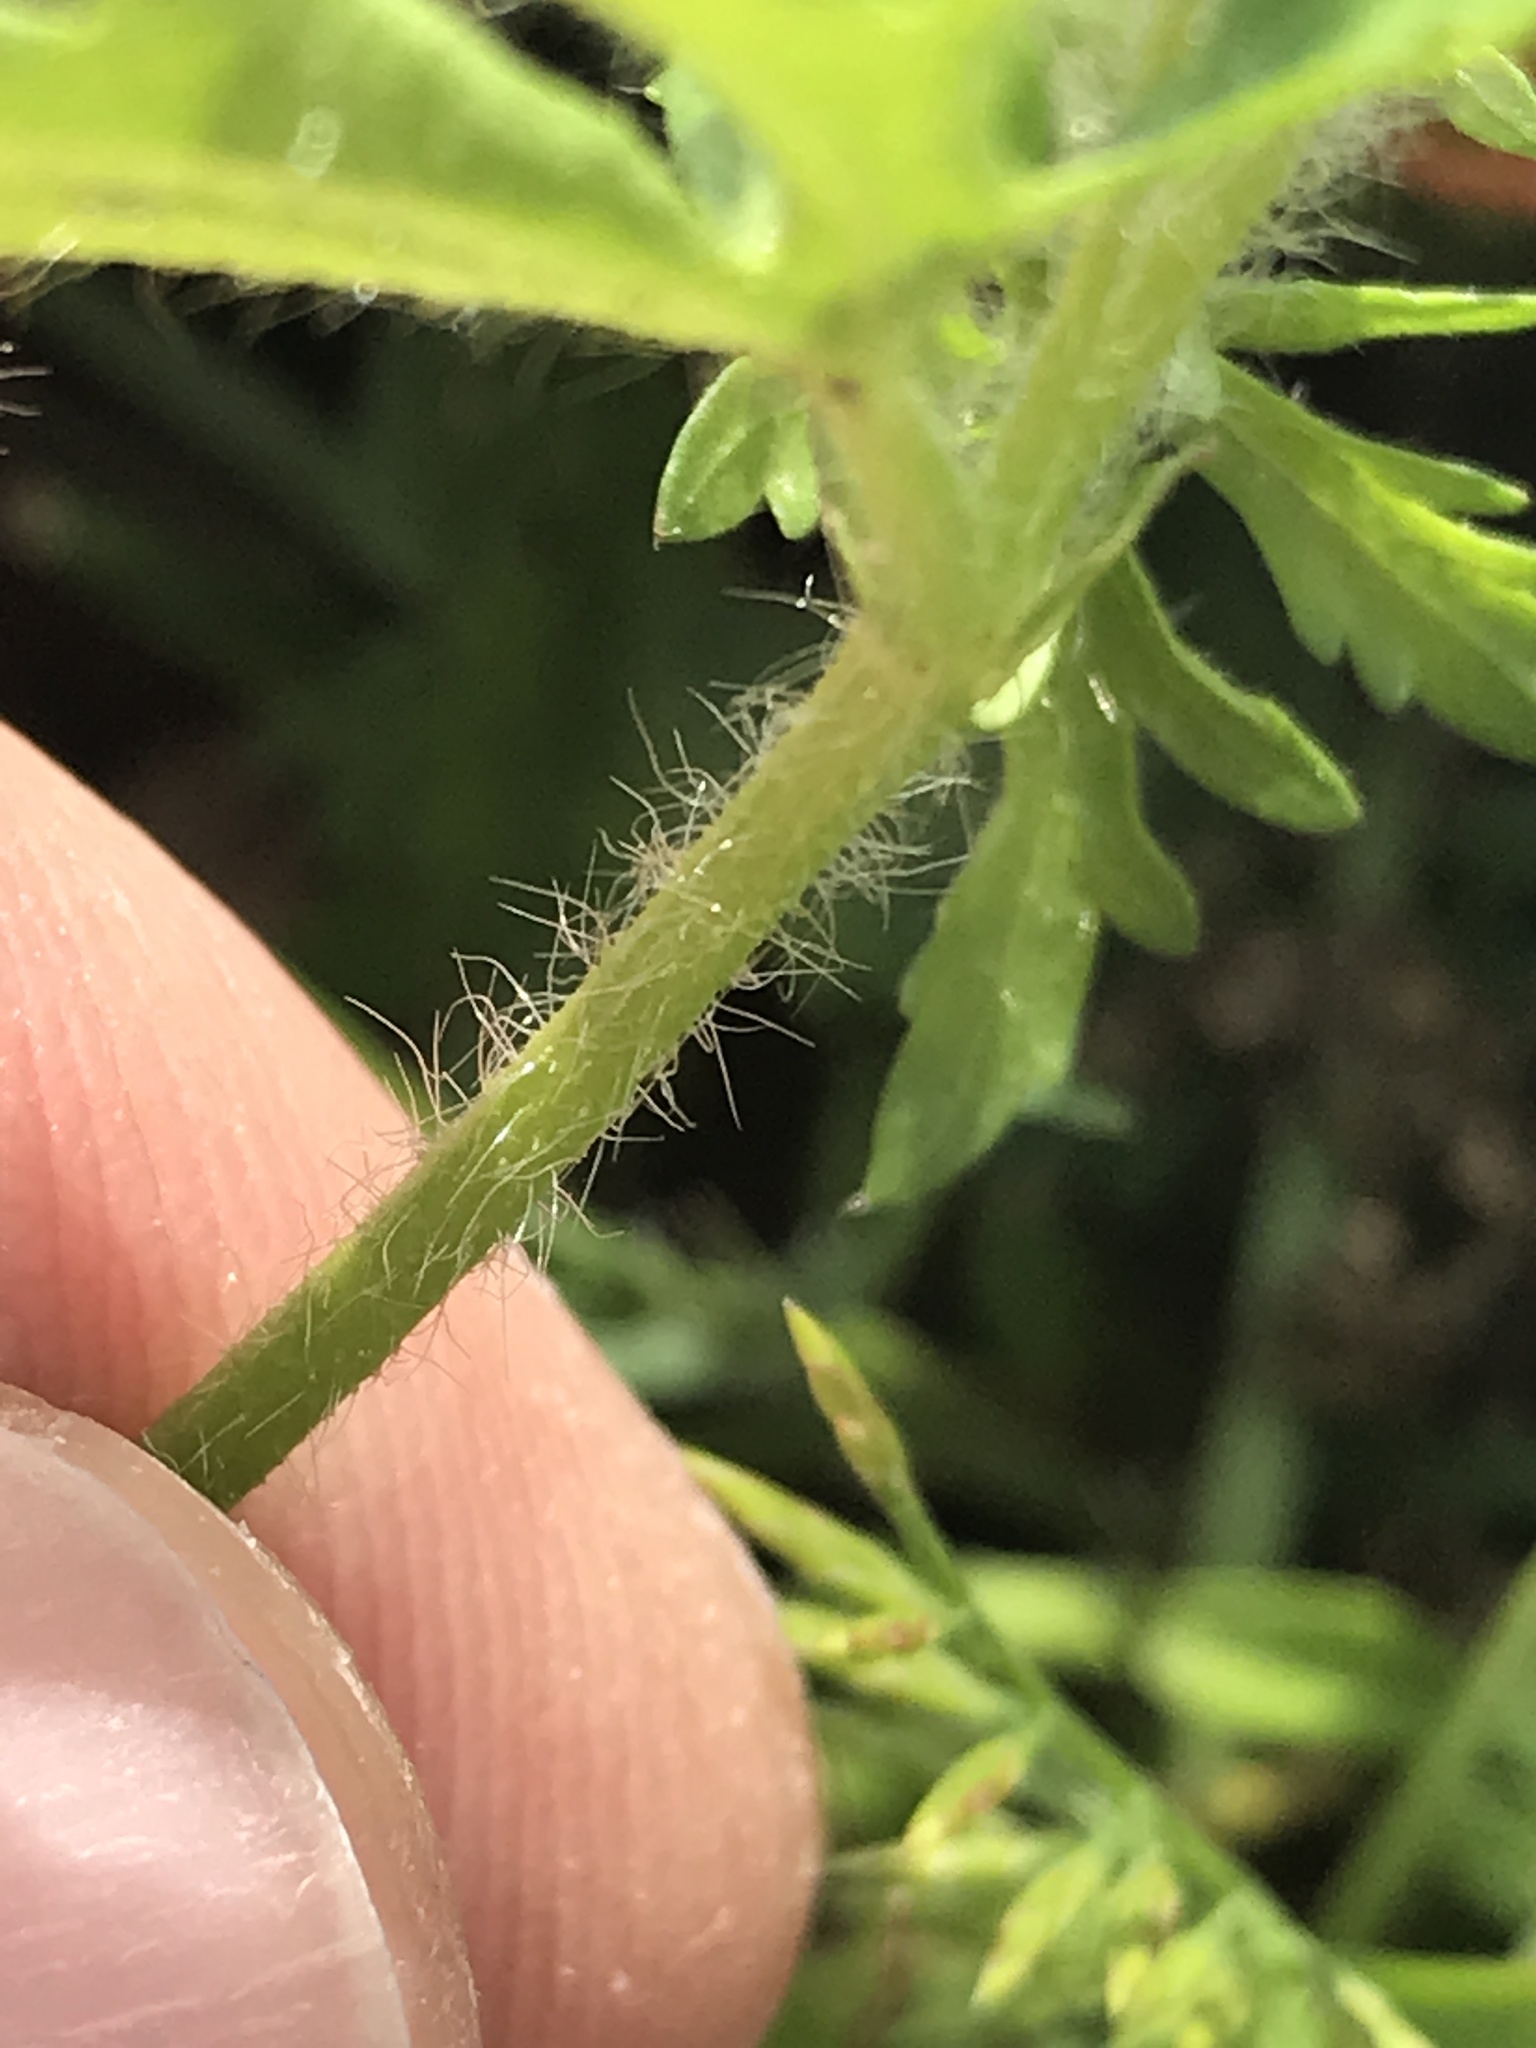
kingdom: Plantae
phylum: Tracheophyta
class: Magnoliopsida
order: Malvales
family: Malvaceae
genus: Modiola
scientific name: Modiola caroliniana
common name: Carolina bristlemallow
